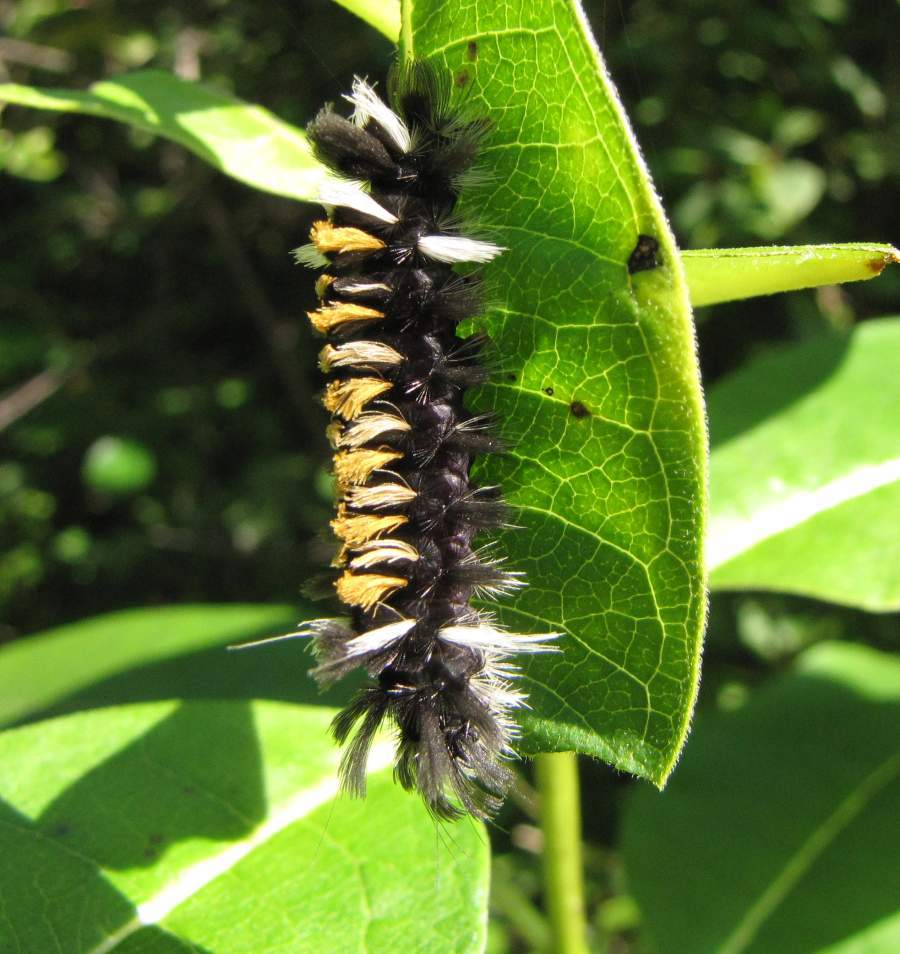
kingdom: Animalia
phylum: Arthropoda
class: Insecta
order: Lepidoptera
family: Erebidae
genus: Euchaetes
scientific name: Euchaetes egle
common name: Milkweed tussock moth
